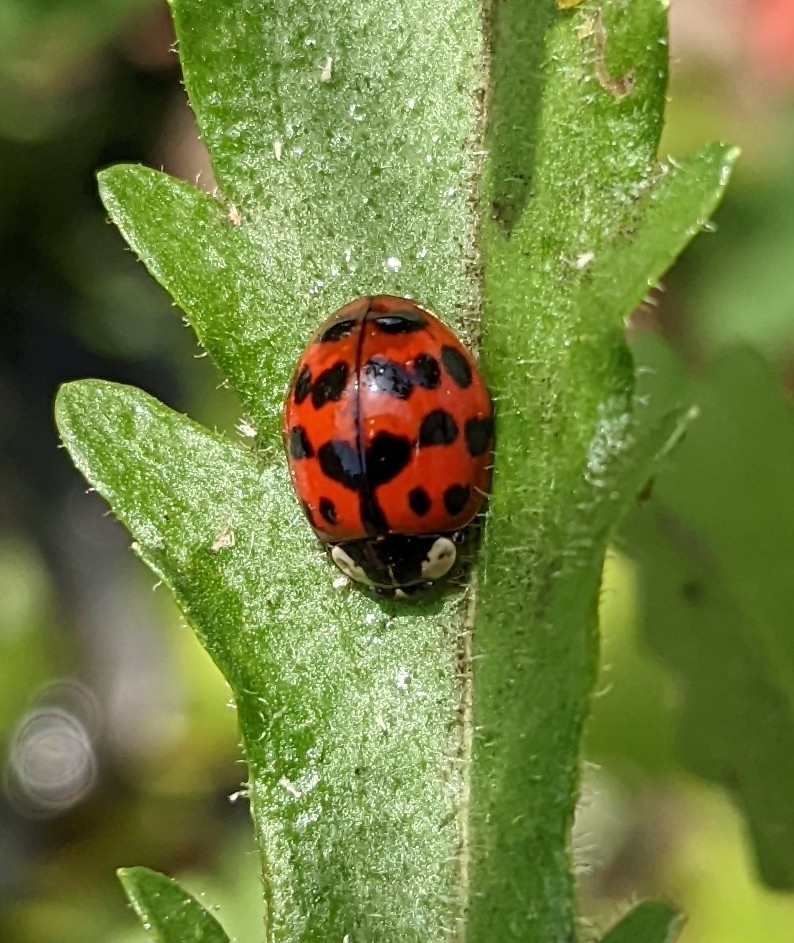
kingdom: Animalia
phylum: Arthropoda
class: Insecta
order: Coleoptera
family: Coccinellidae
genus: Harmonia
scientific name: Harmonia axyridis
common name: Harlequin ladybird
